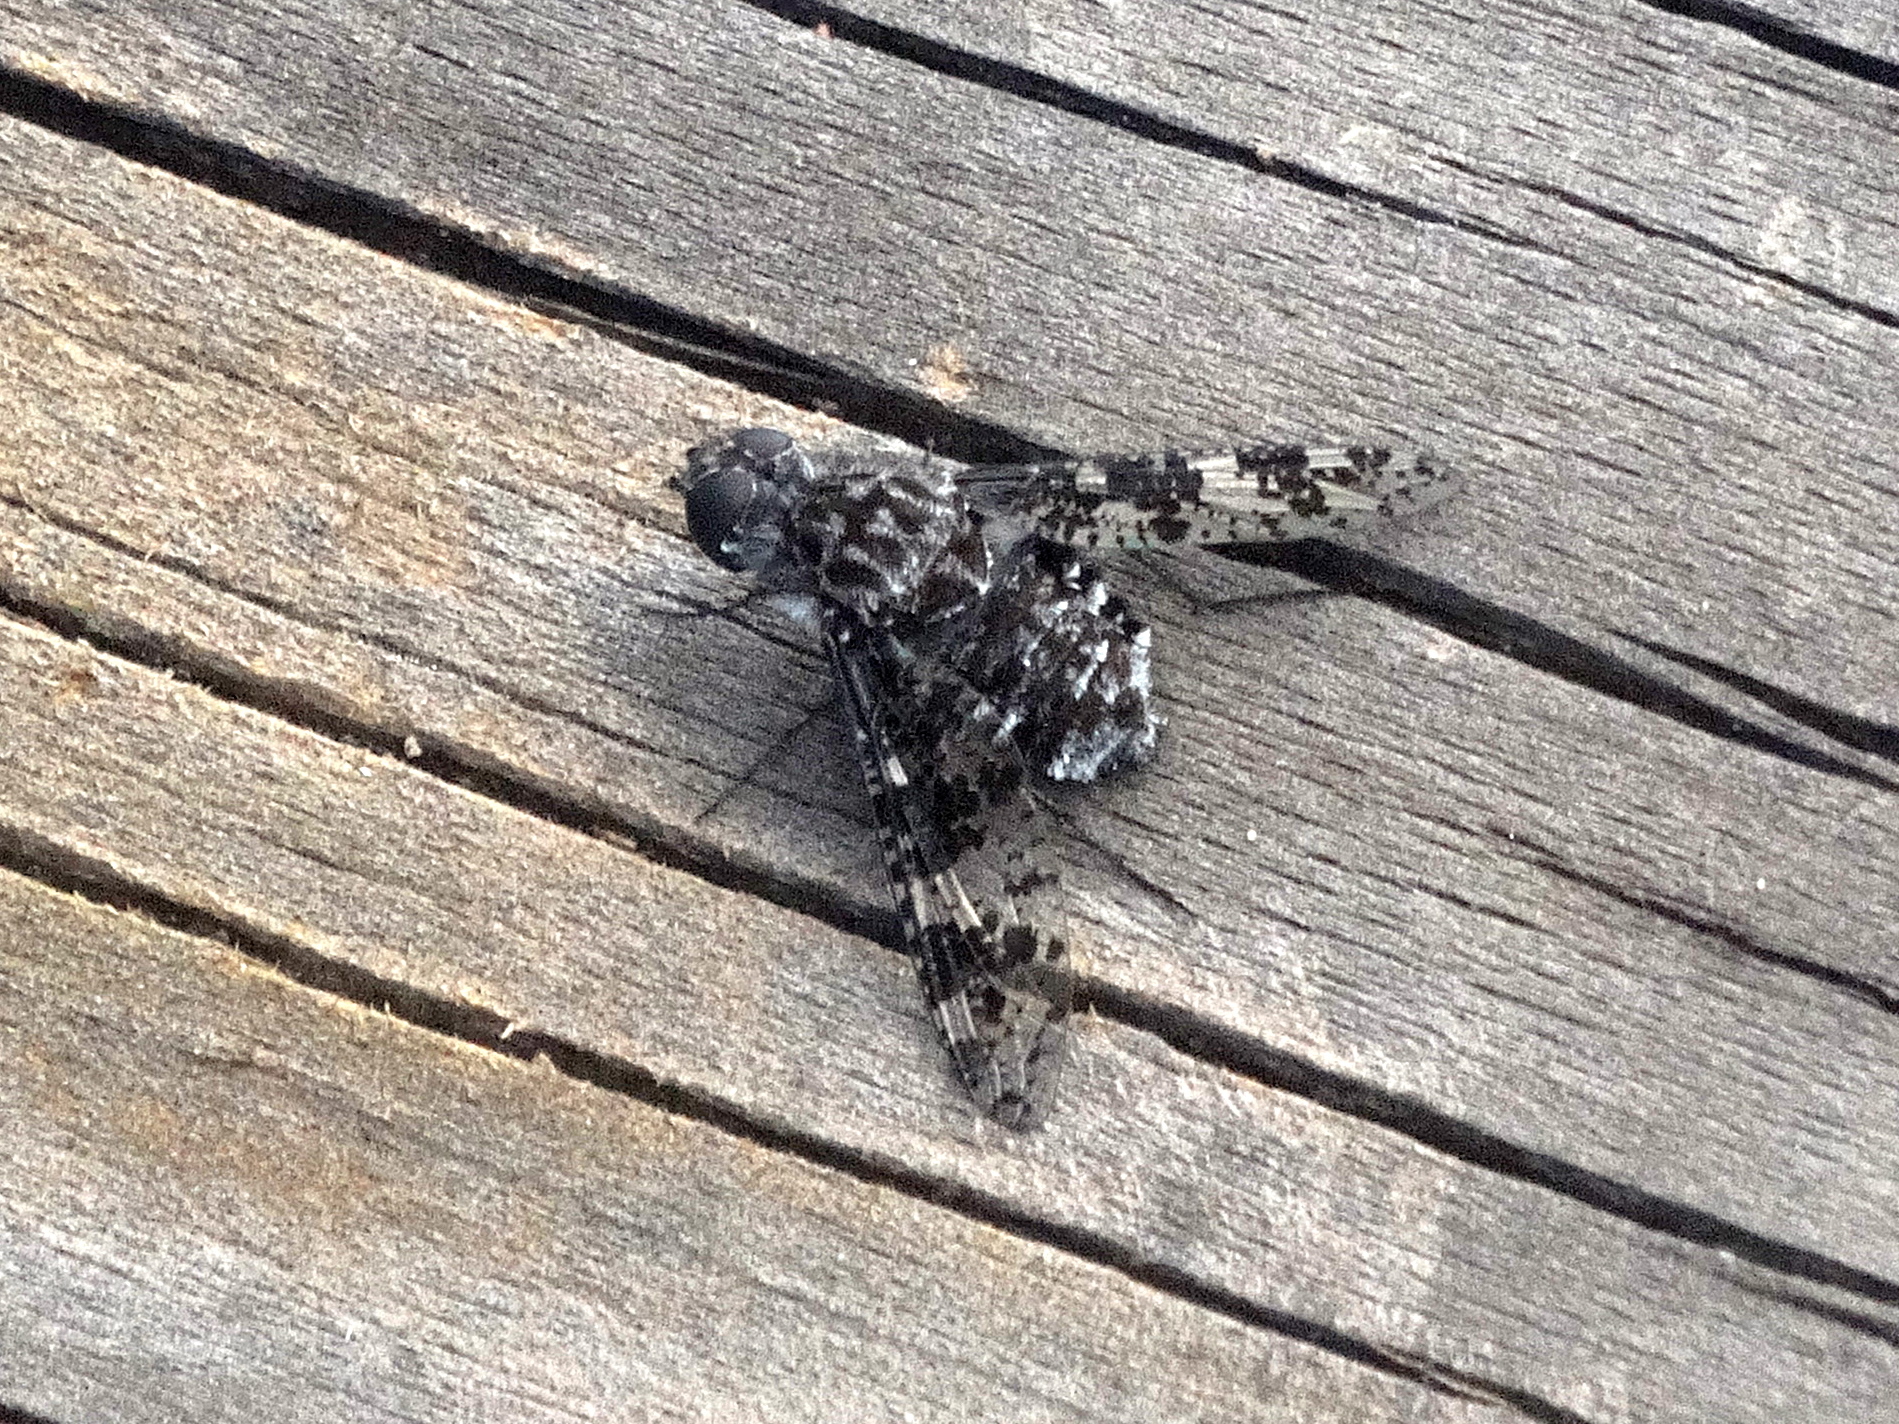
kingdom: Animalia
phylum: Arthropoda
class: Insecta
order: Diptera
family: Bombyliidae
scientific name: Bombyliidae
